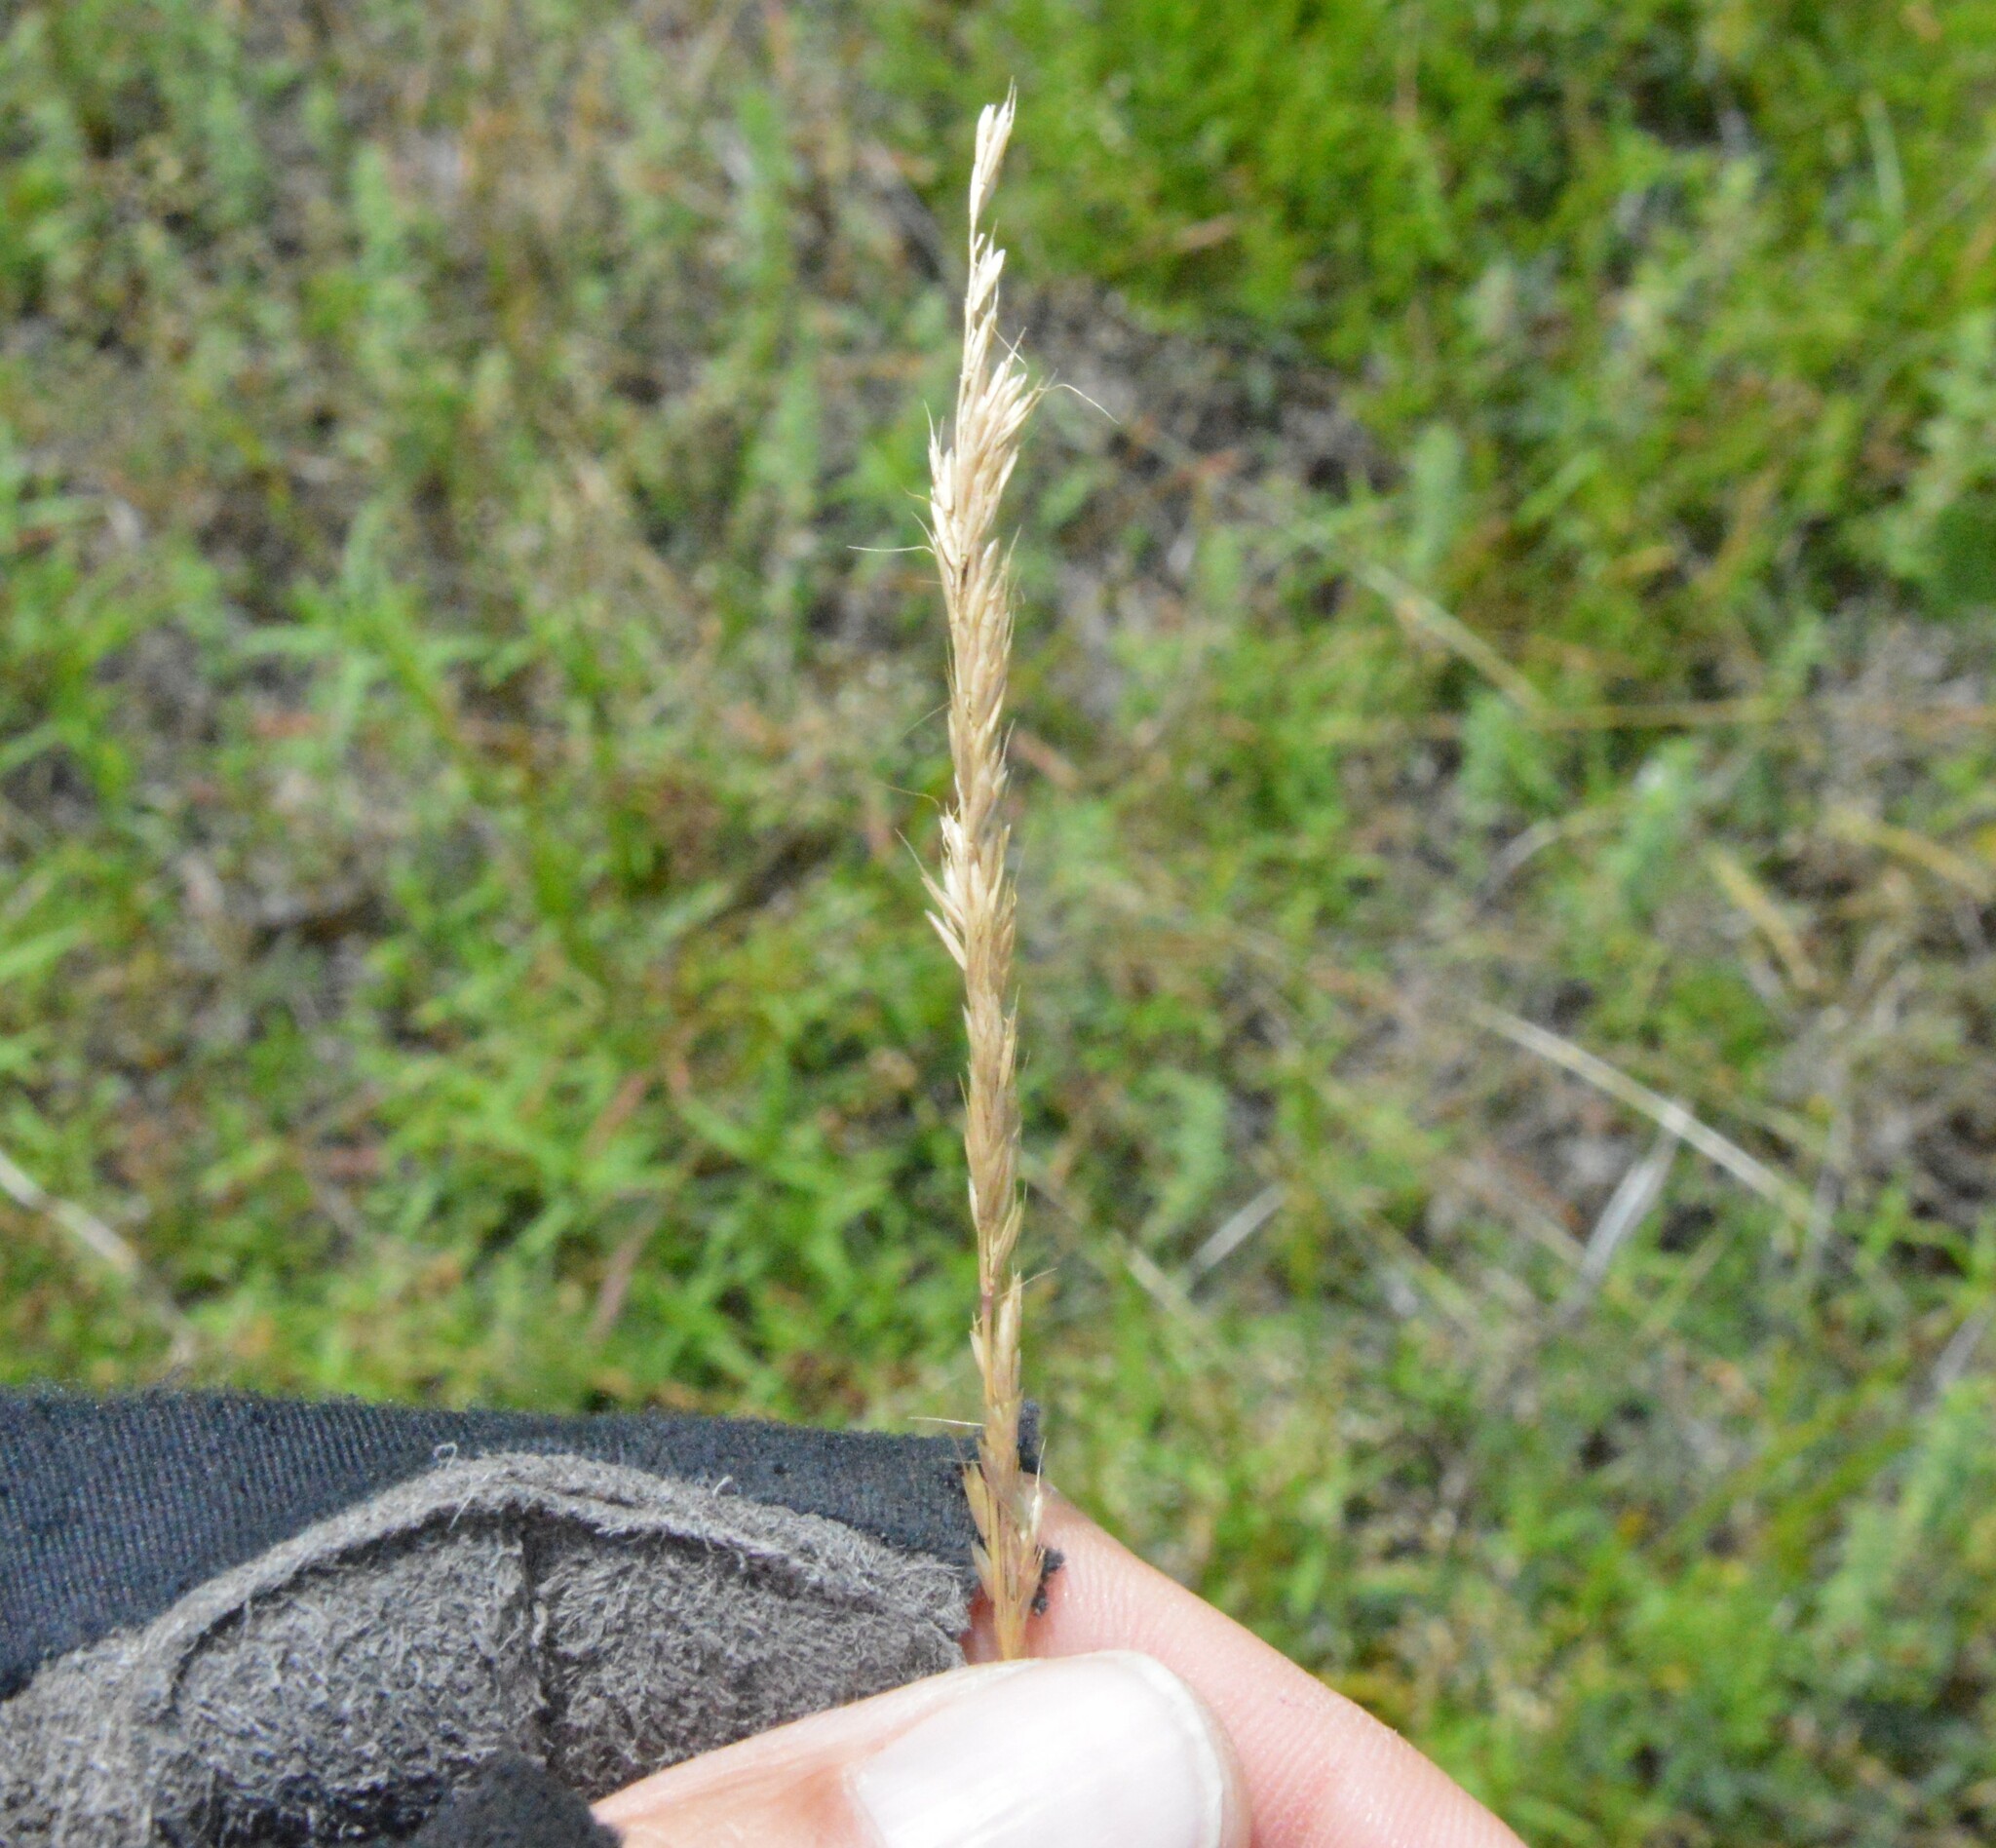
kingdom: Plantae
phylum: Tracheophyta
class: Liliopsida
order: Poales
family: Poaceae
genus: Trisetum
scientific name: Trisetum interruptum
